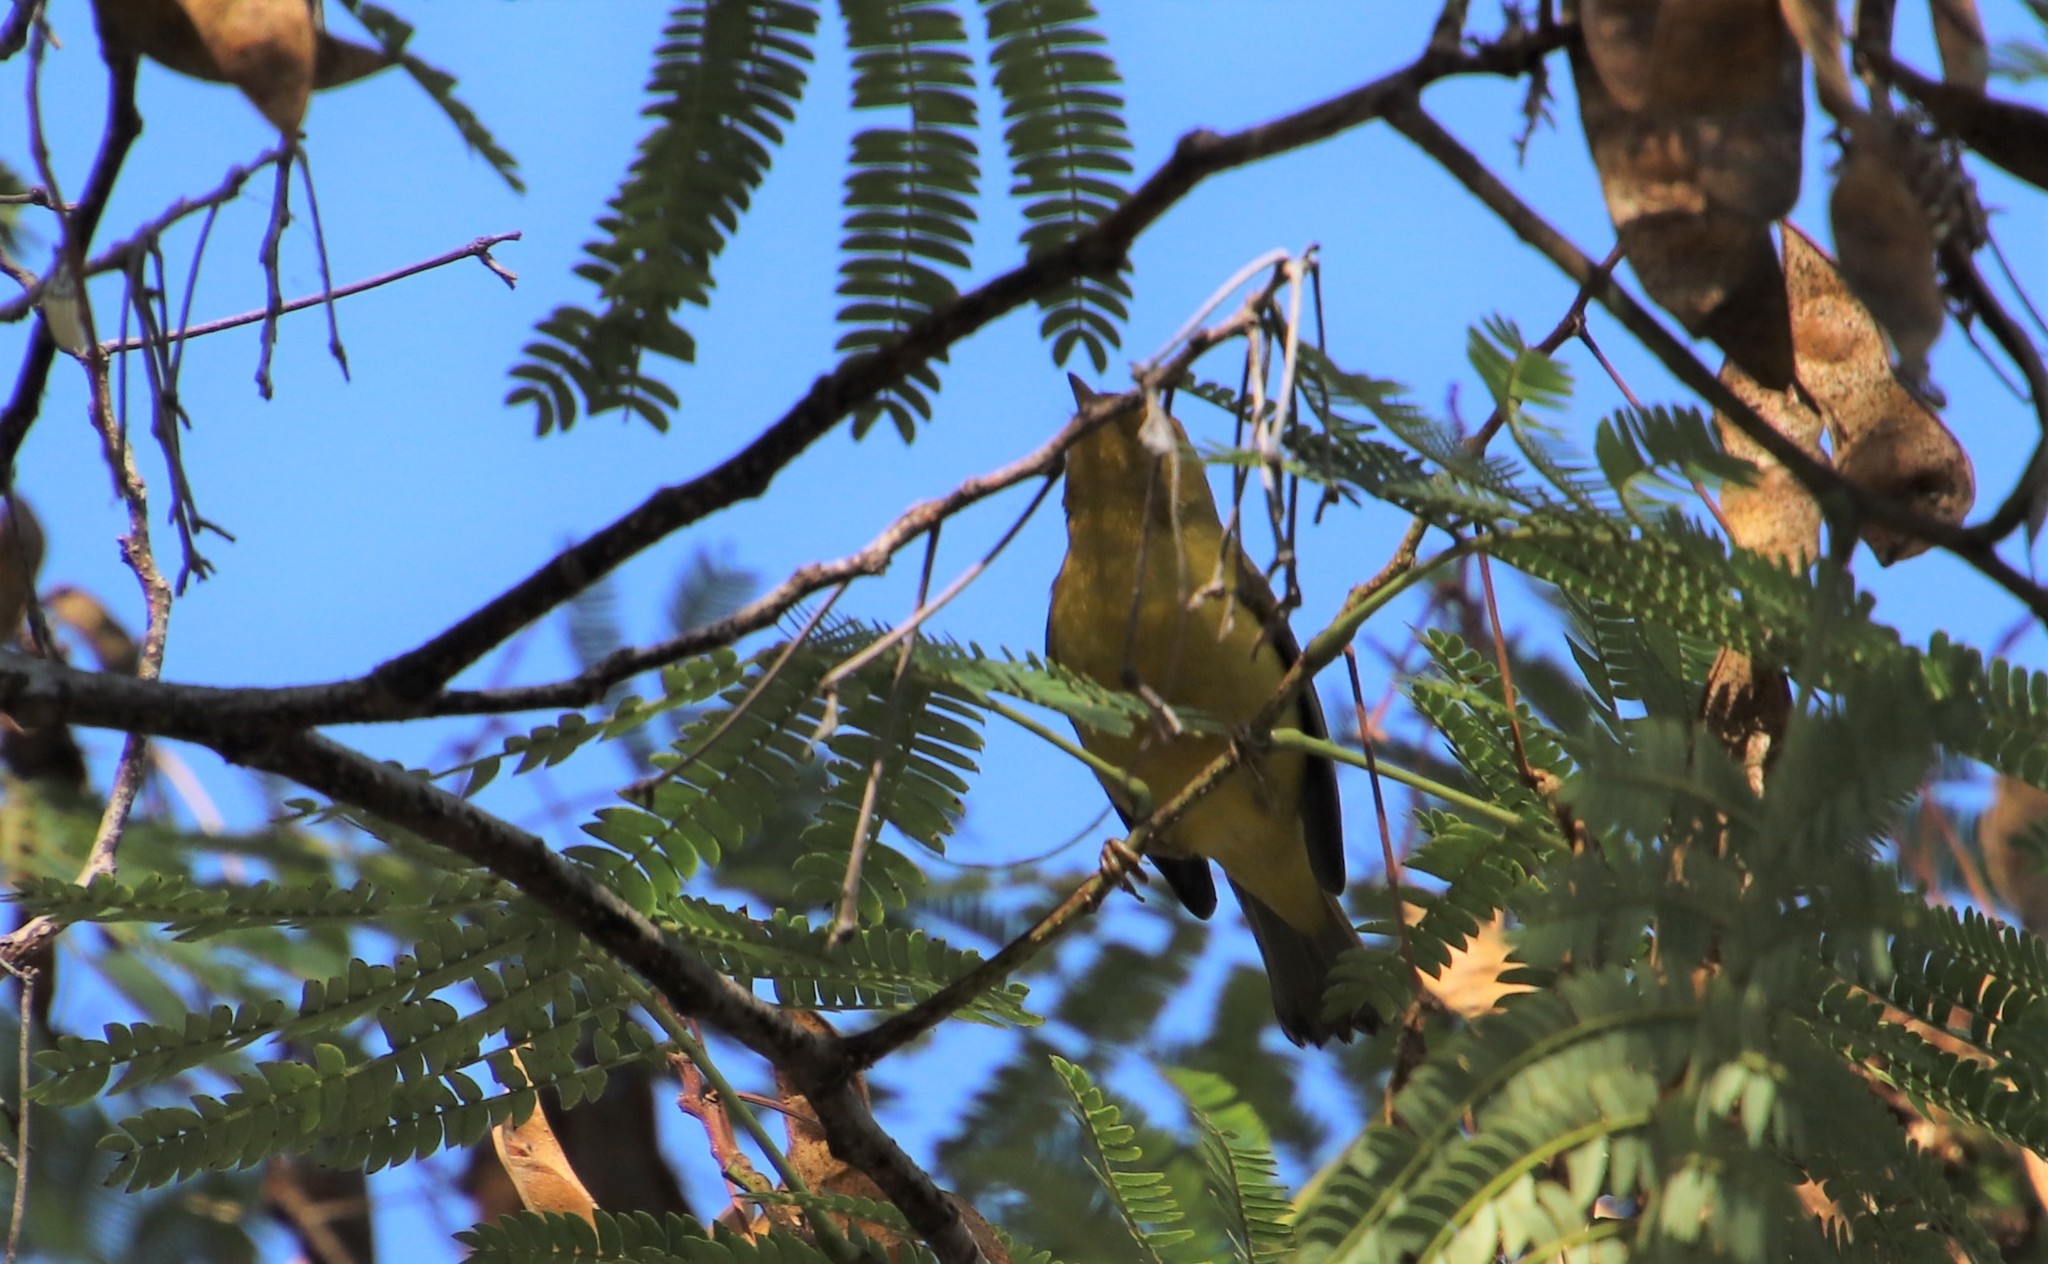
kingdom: Animalia
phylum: Chordata
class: Aves
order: Passeriformes
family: Parulidae
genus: Cardellina
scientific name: Cardellina pusilla
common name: Wilson's warbler
